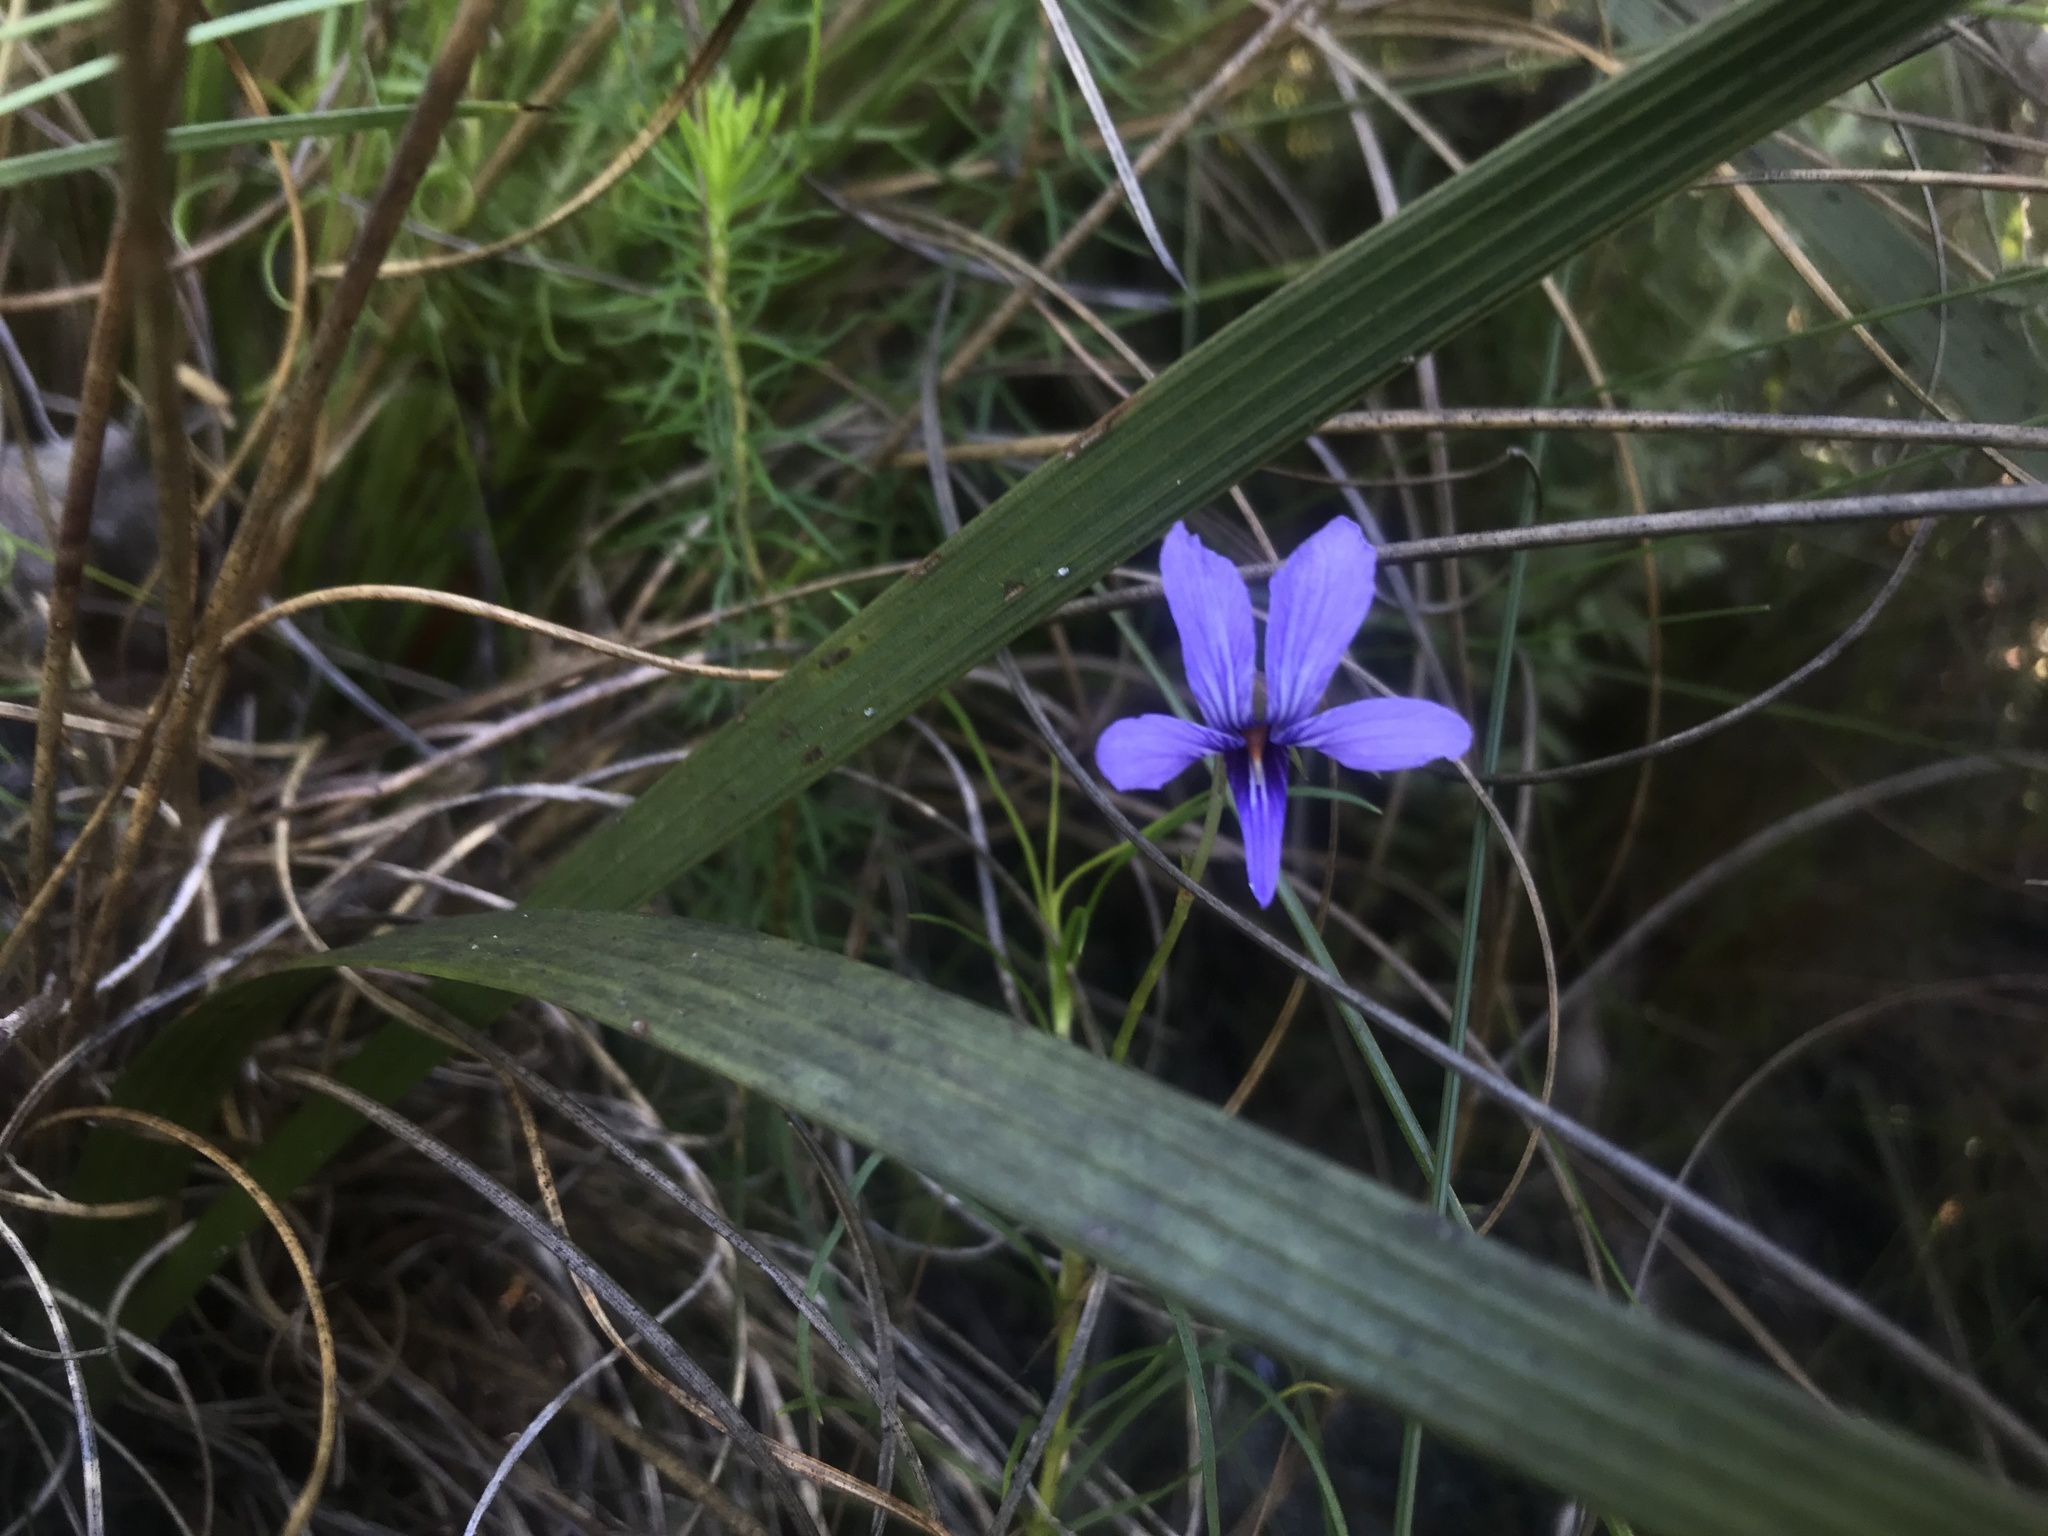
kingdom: Plantae
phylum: Tracheophyta
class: Magnoliopsida
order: Malpighiales
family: Violaceae
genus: Viola
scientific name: Viola decumbens
